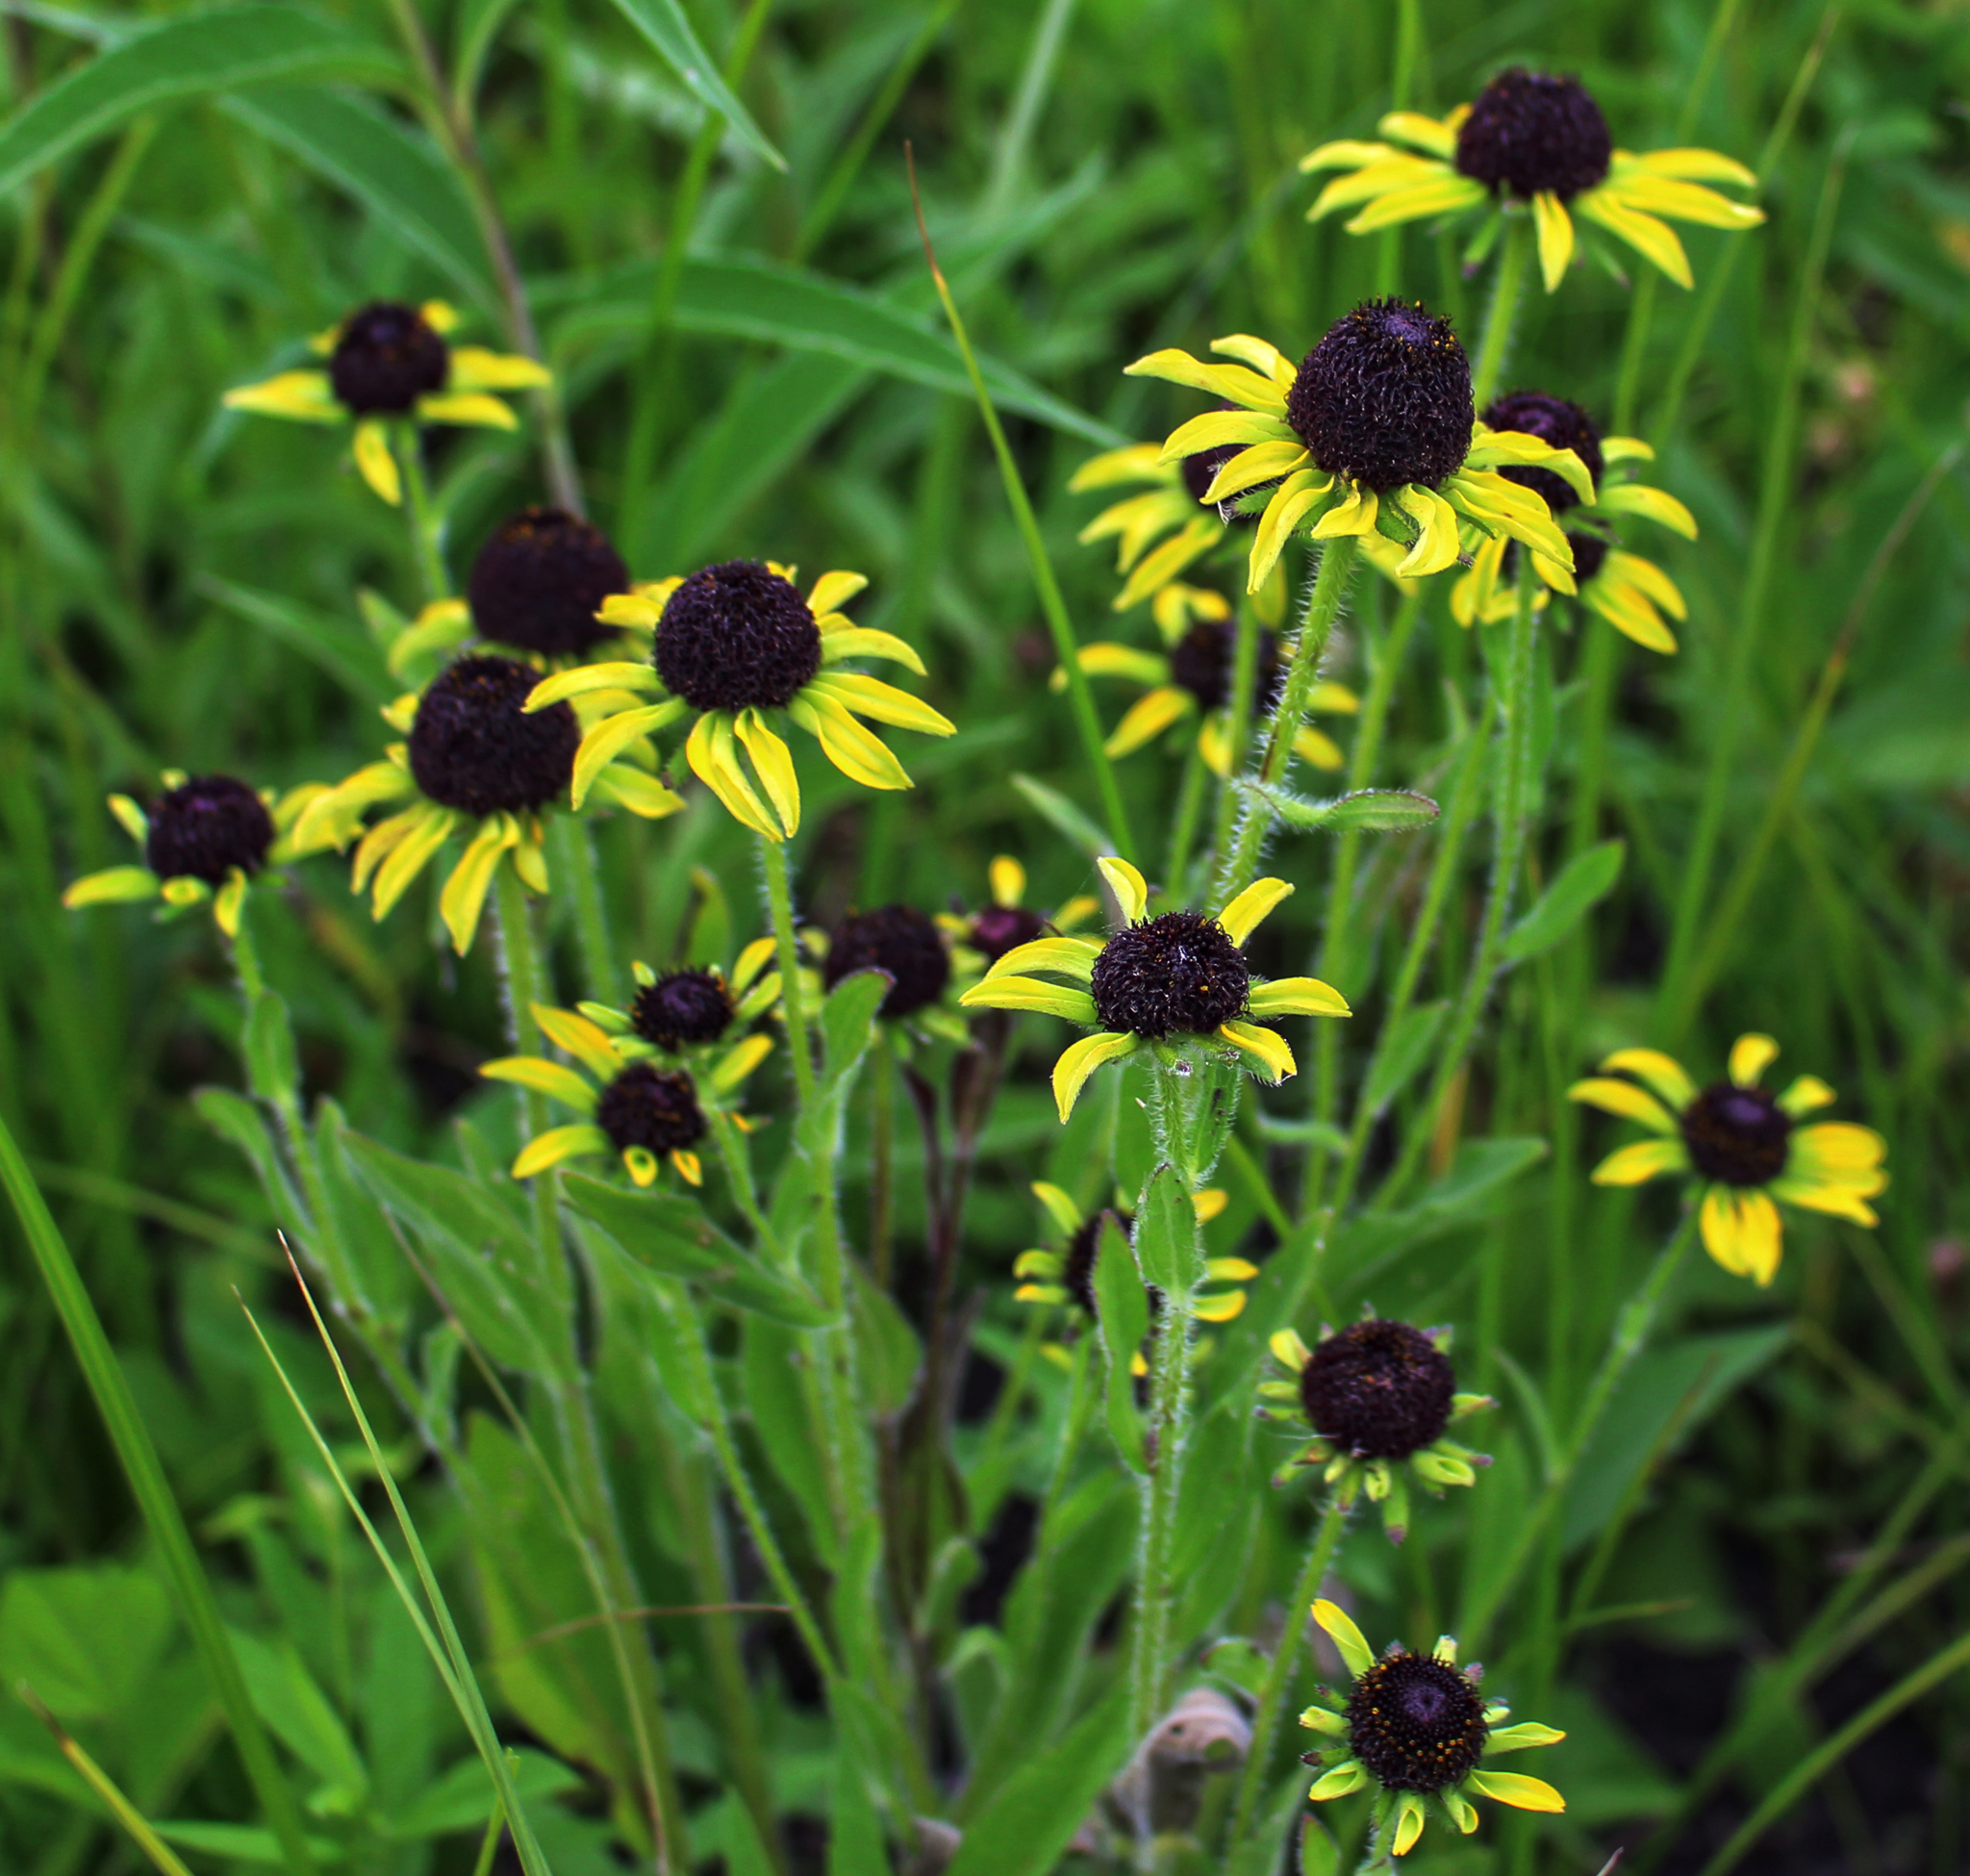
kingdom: Plantae
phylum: Tracheophyta
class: Magnoliopsida
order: Asterales
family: Asteraceae
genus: Rudbeckia
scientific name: Rudbeckia hirta
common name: Black-eyed-susan
